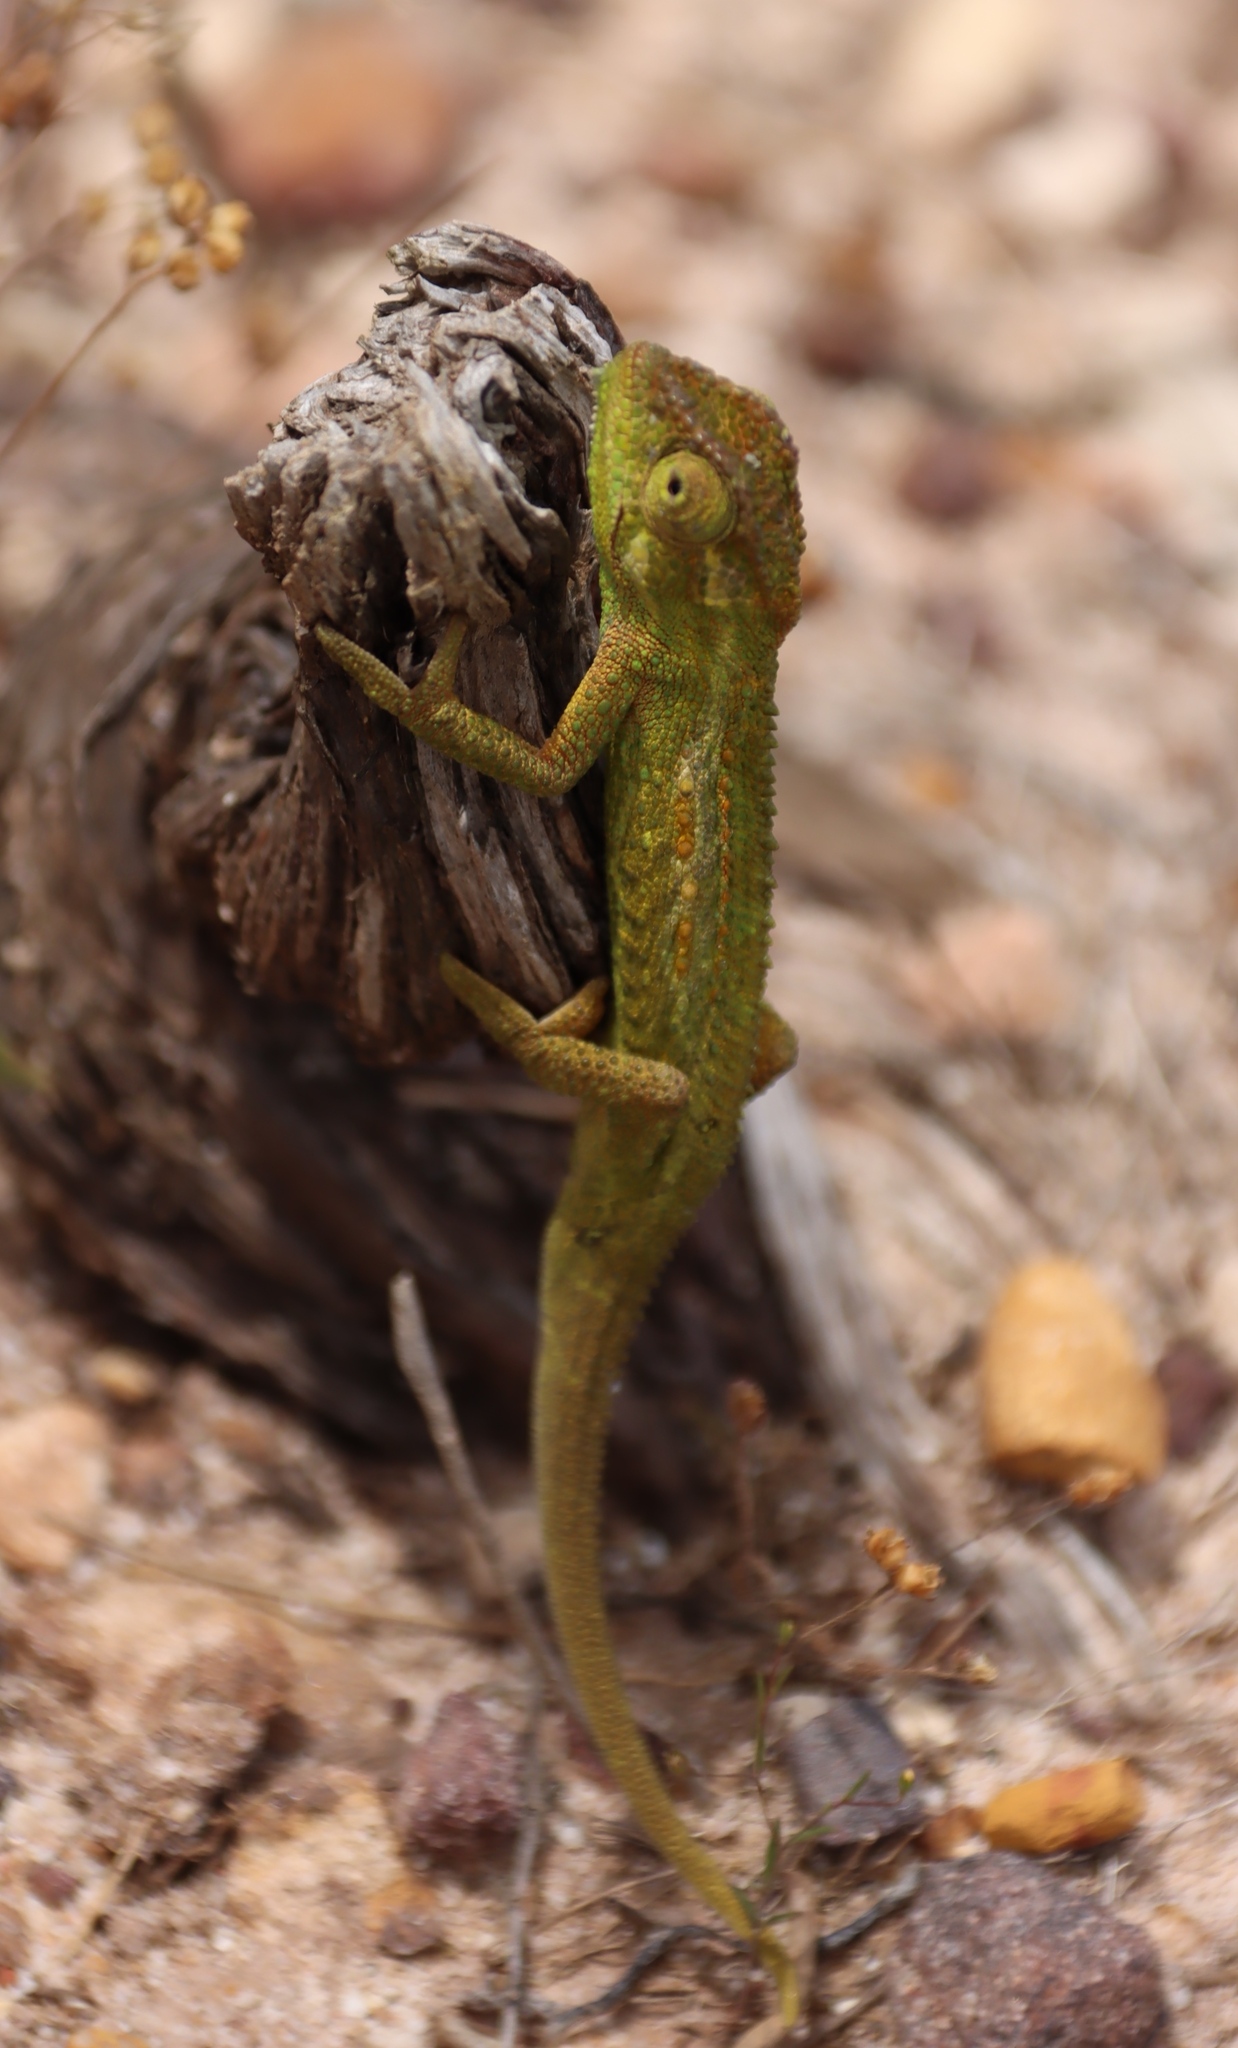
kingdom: Animalia
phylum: Chordata
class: Squamata
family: Chamaeleonidae
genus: Bradypodion
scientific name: Bradypodion pumilum
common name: Cape dwarf chameleon
